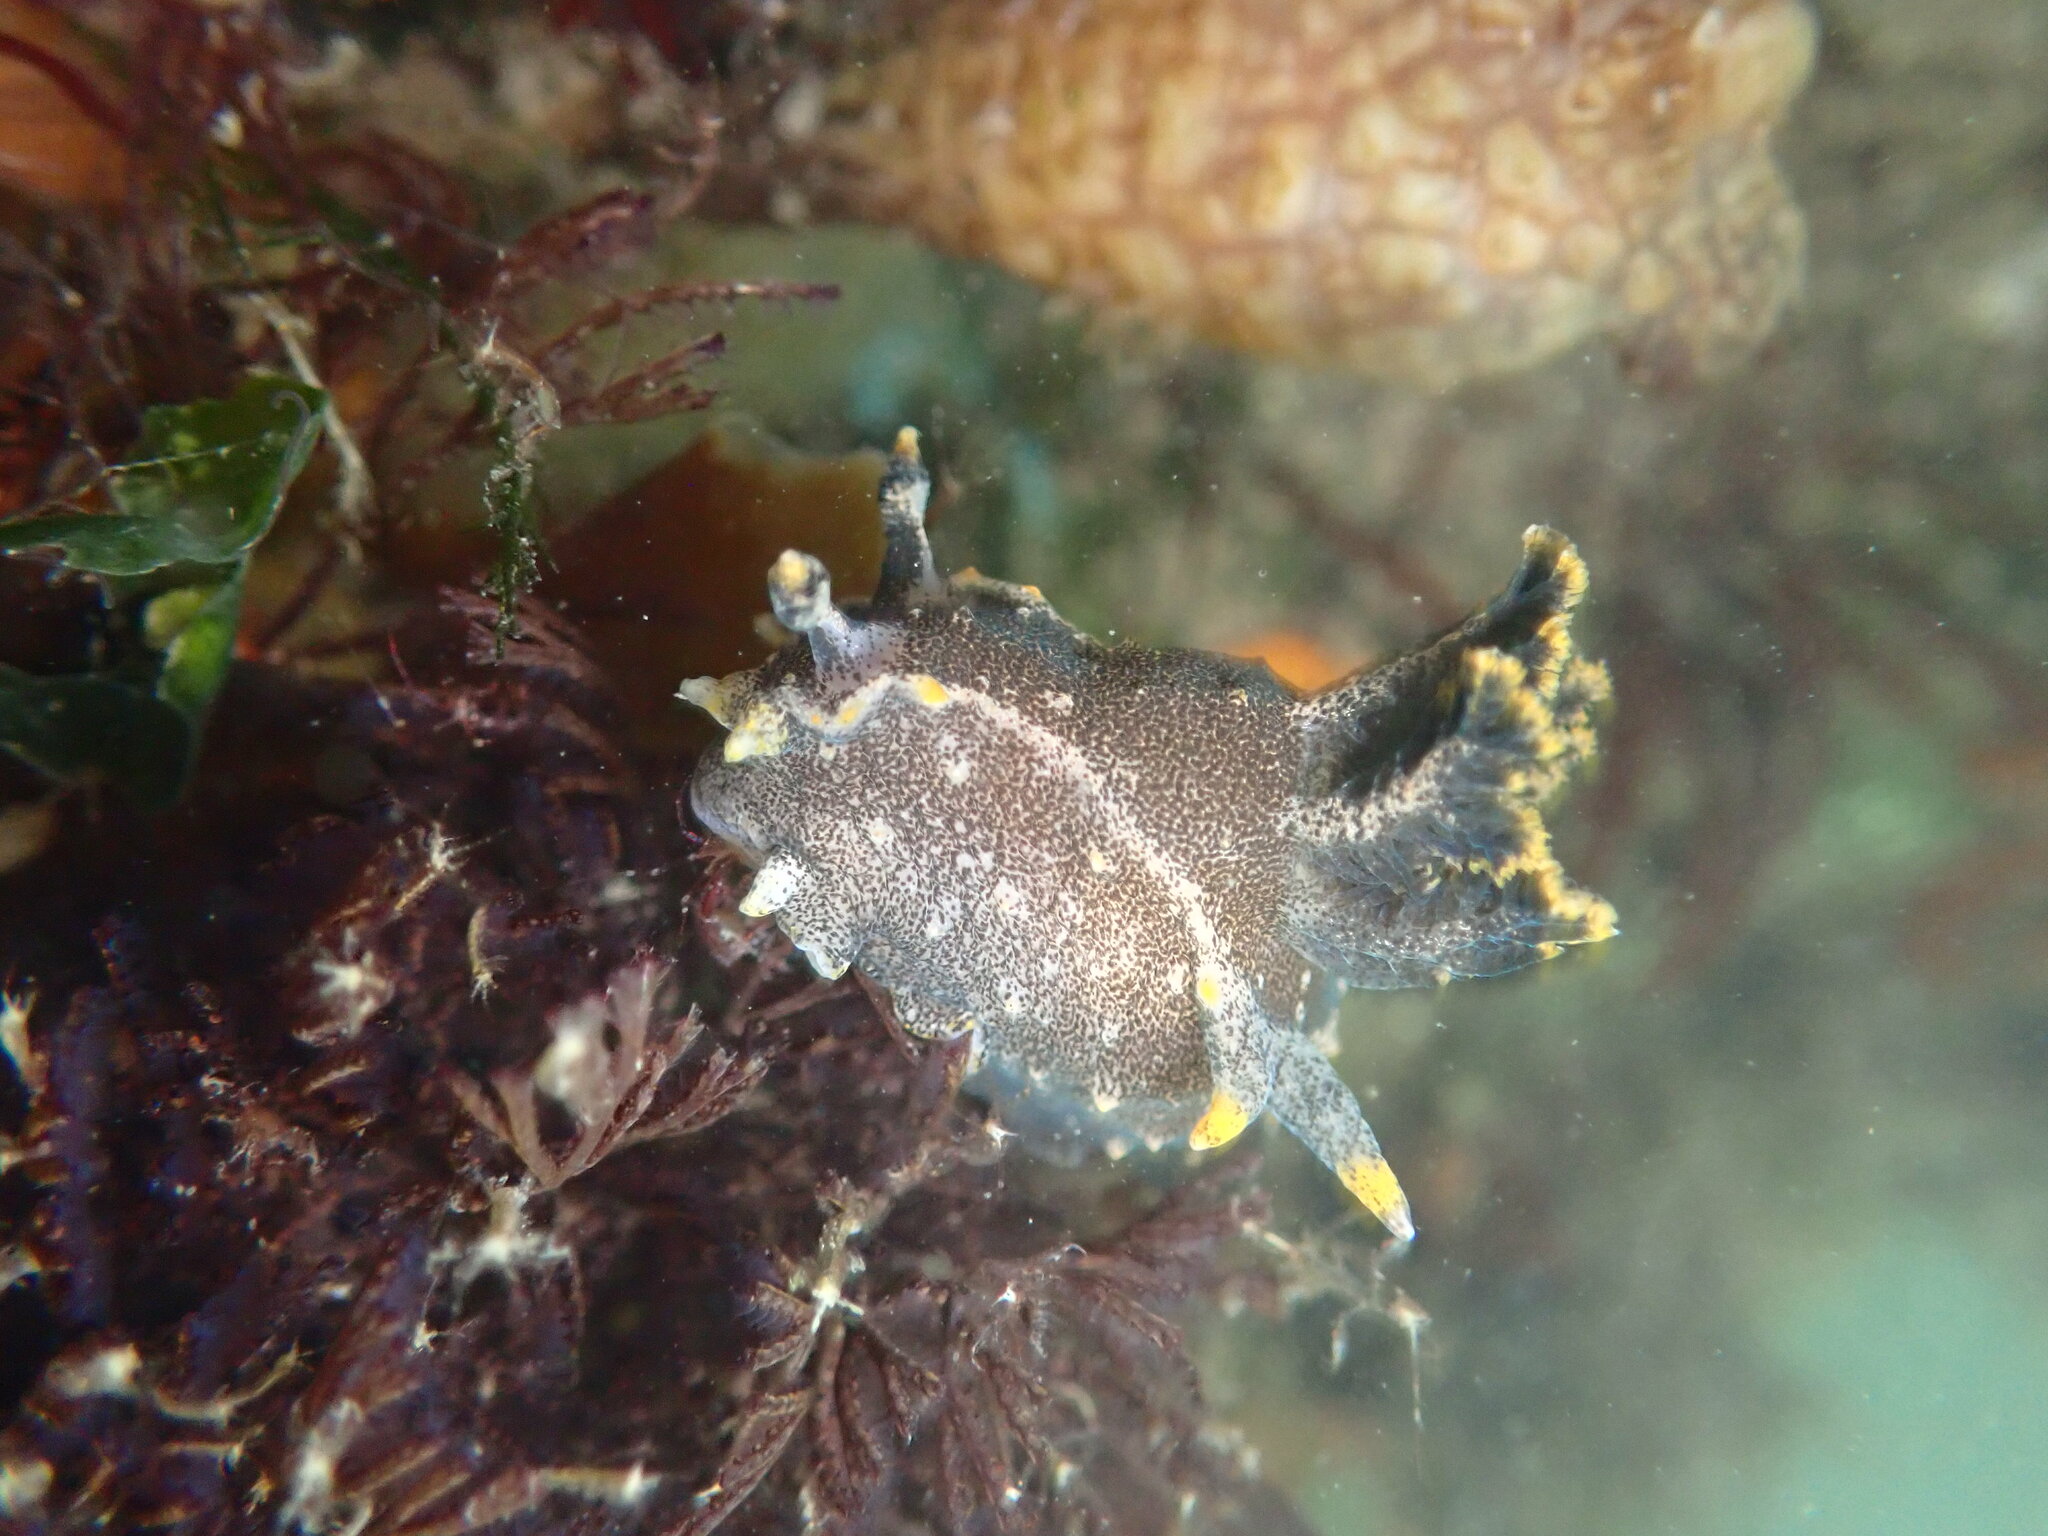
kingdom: Animalia
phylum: Mollusca
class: Gastropoda
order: Nudibranchia
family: Polyceridae
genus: Polycera
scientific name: Polycera hedgpethi
